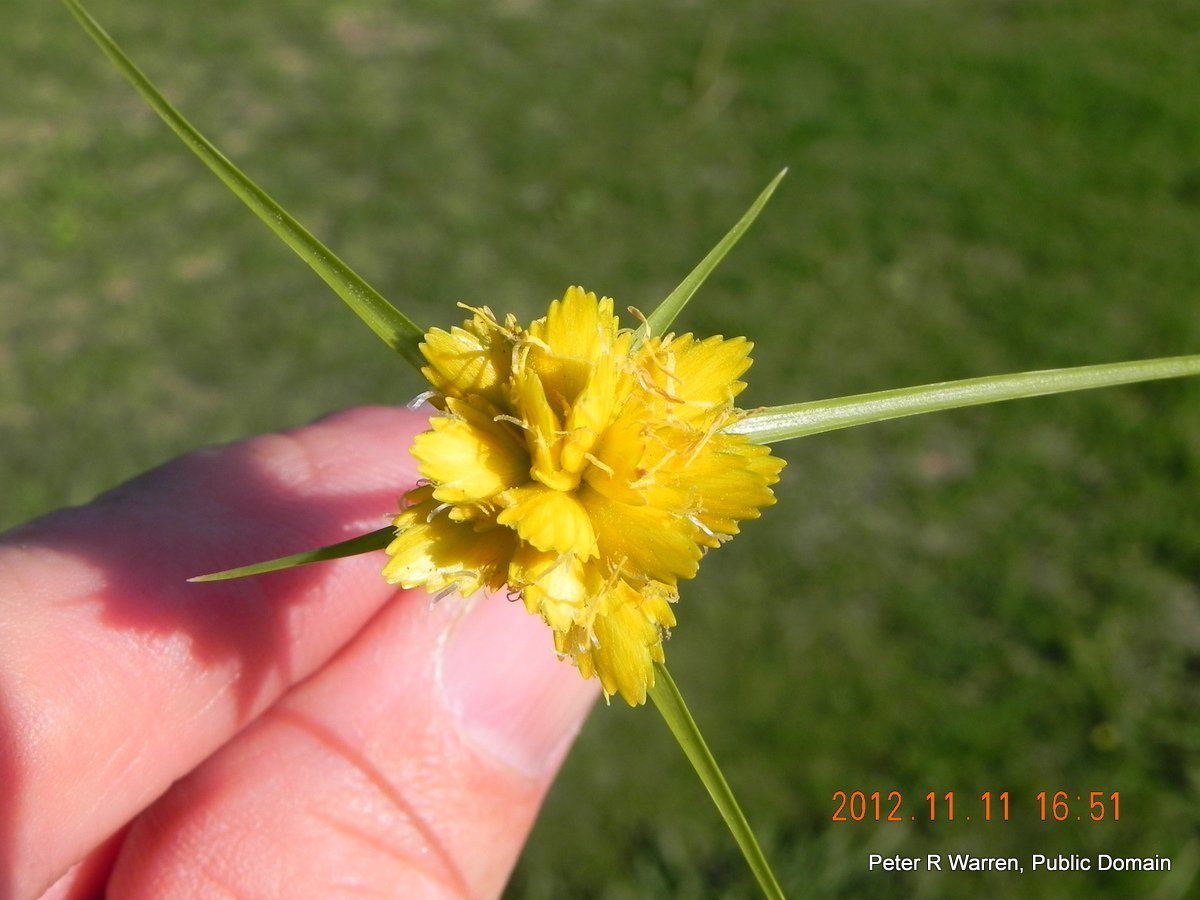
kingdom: Plantae
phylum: Tracheophyta
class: Liliopsida
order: Poales
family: Cyperaceae
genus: Cyperus
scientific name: Cyperus sphaerocephalus
